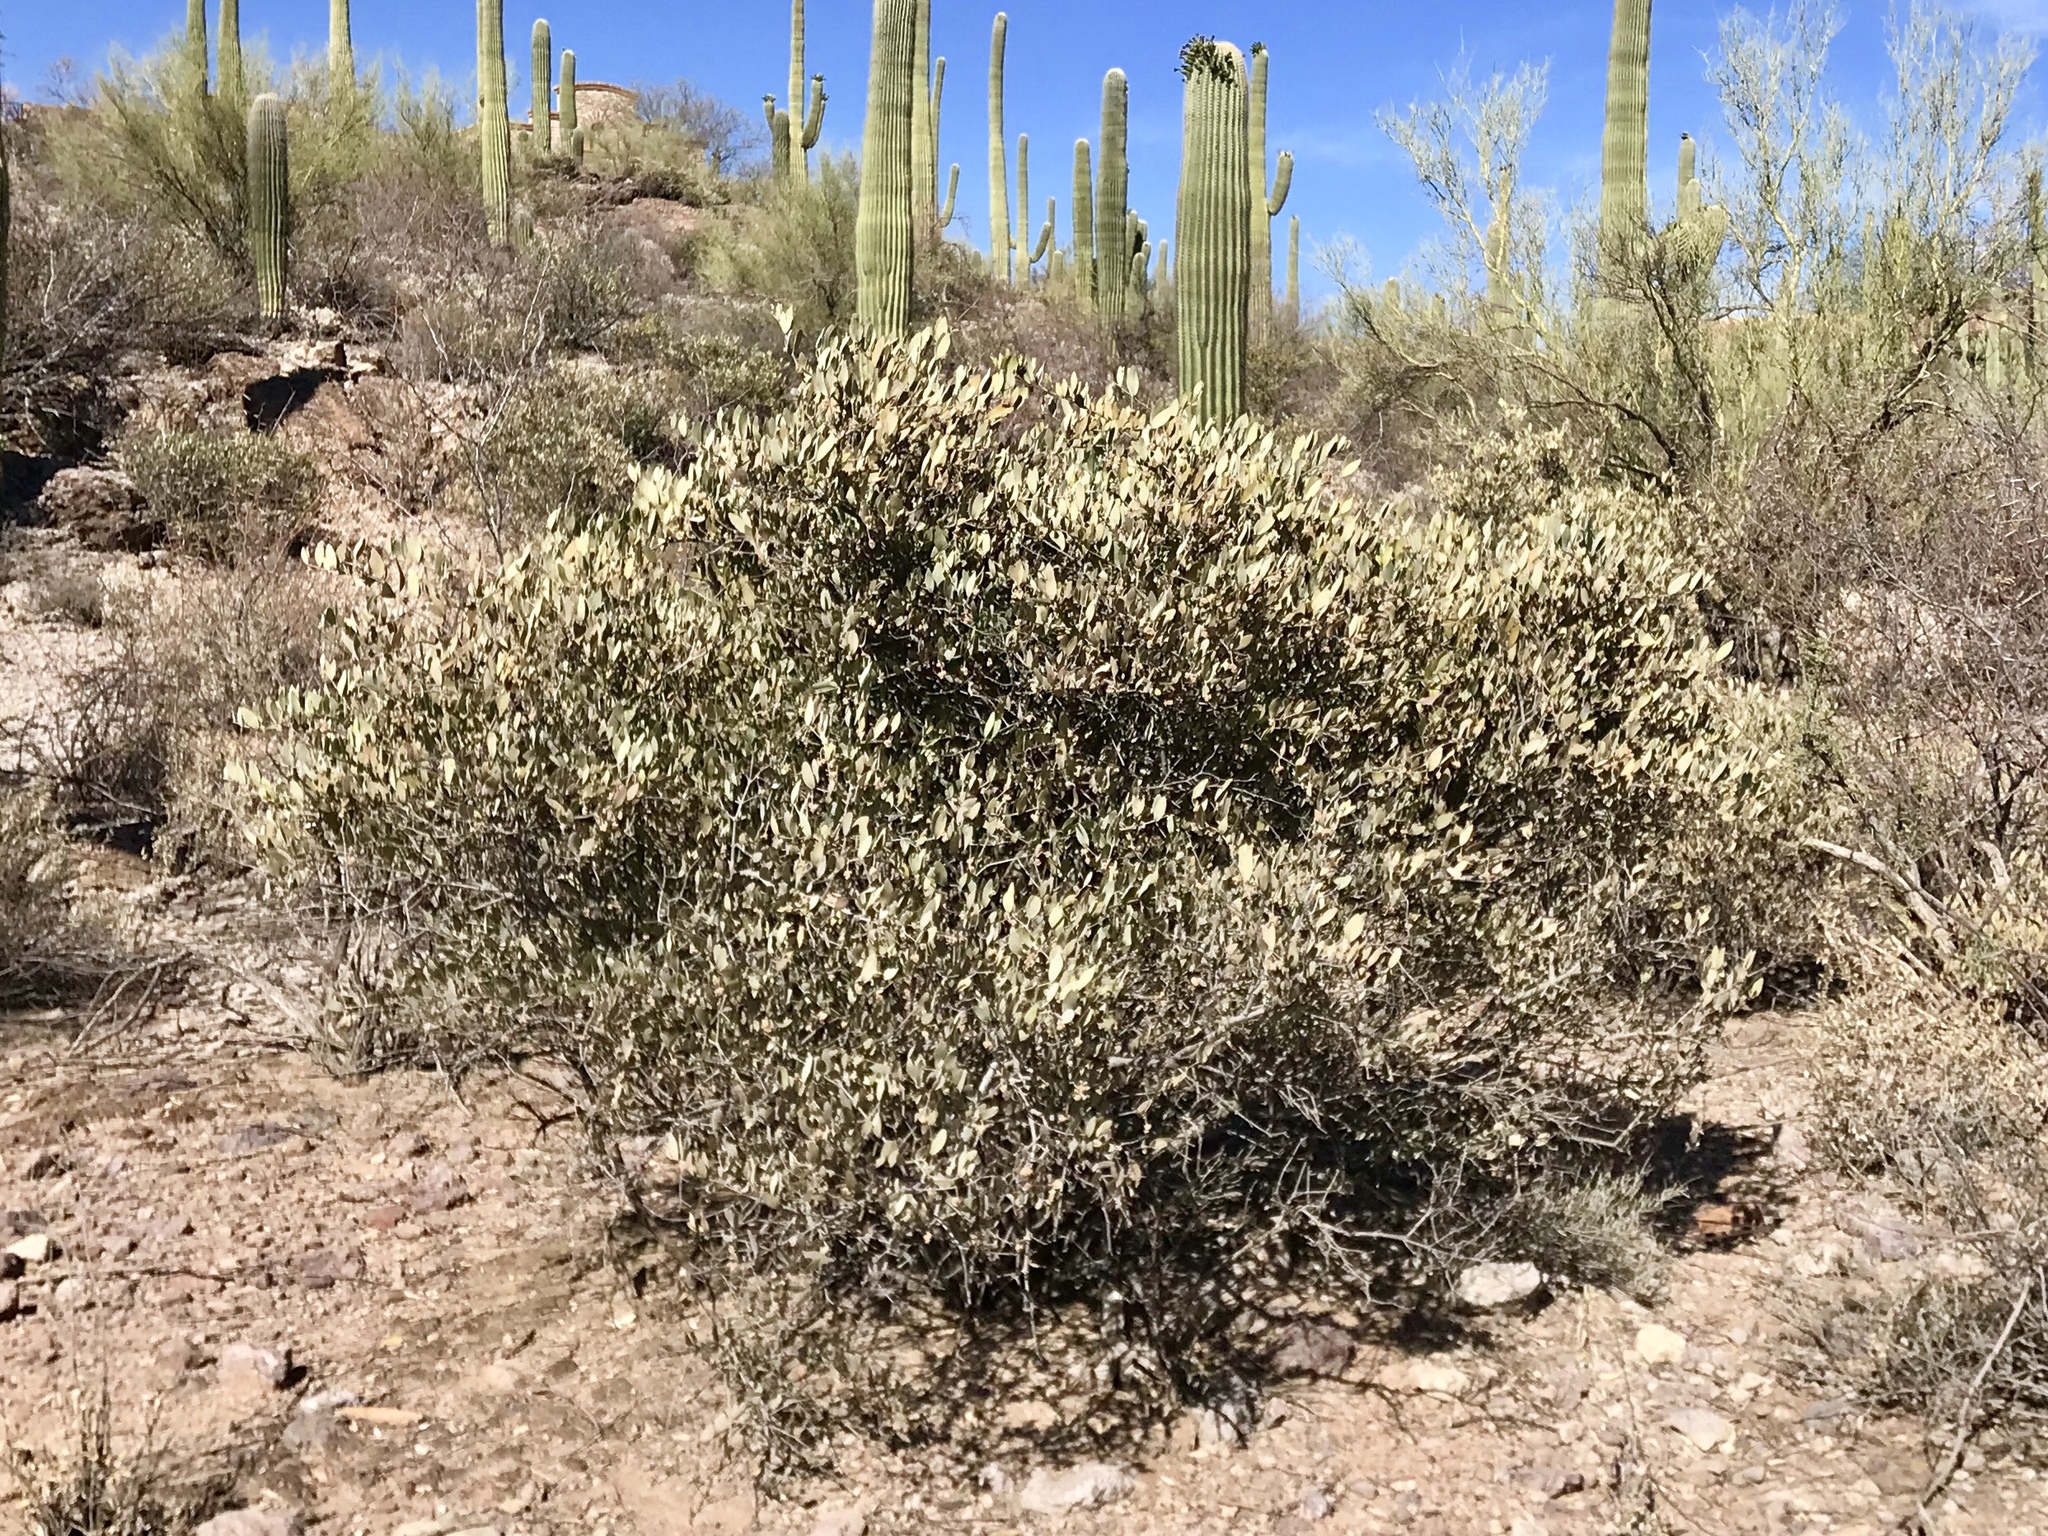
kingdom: Plantae
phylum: Tracheophyta
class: Magnoliopsida
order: Caryophyllales
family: Simmondsiaceae
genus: Simmondsia
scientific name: Simmondsia chinensis
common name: Jojoba
